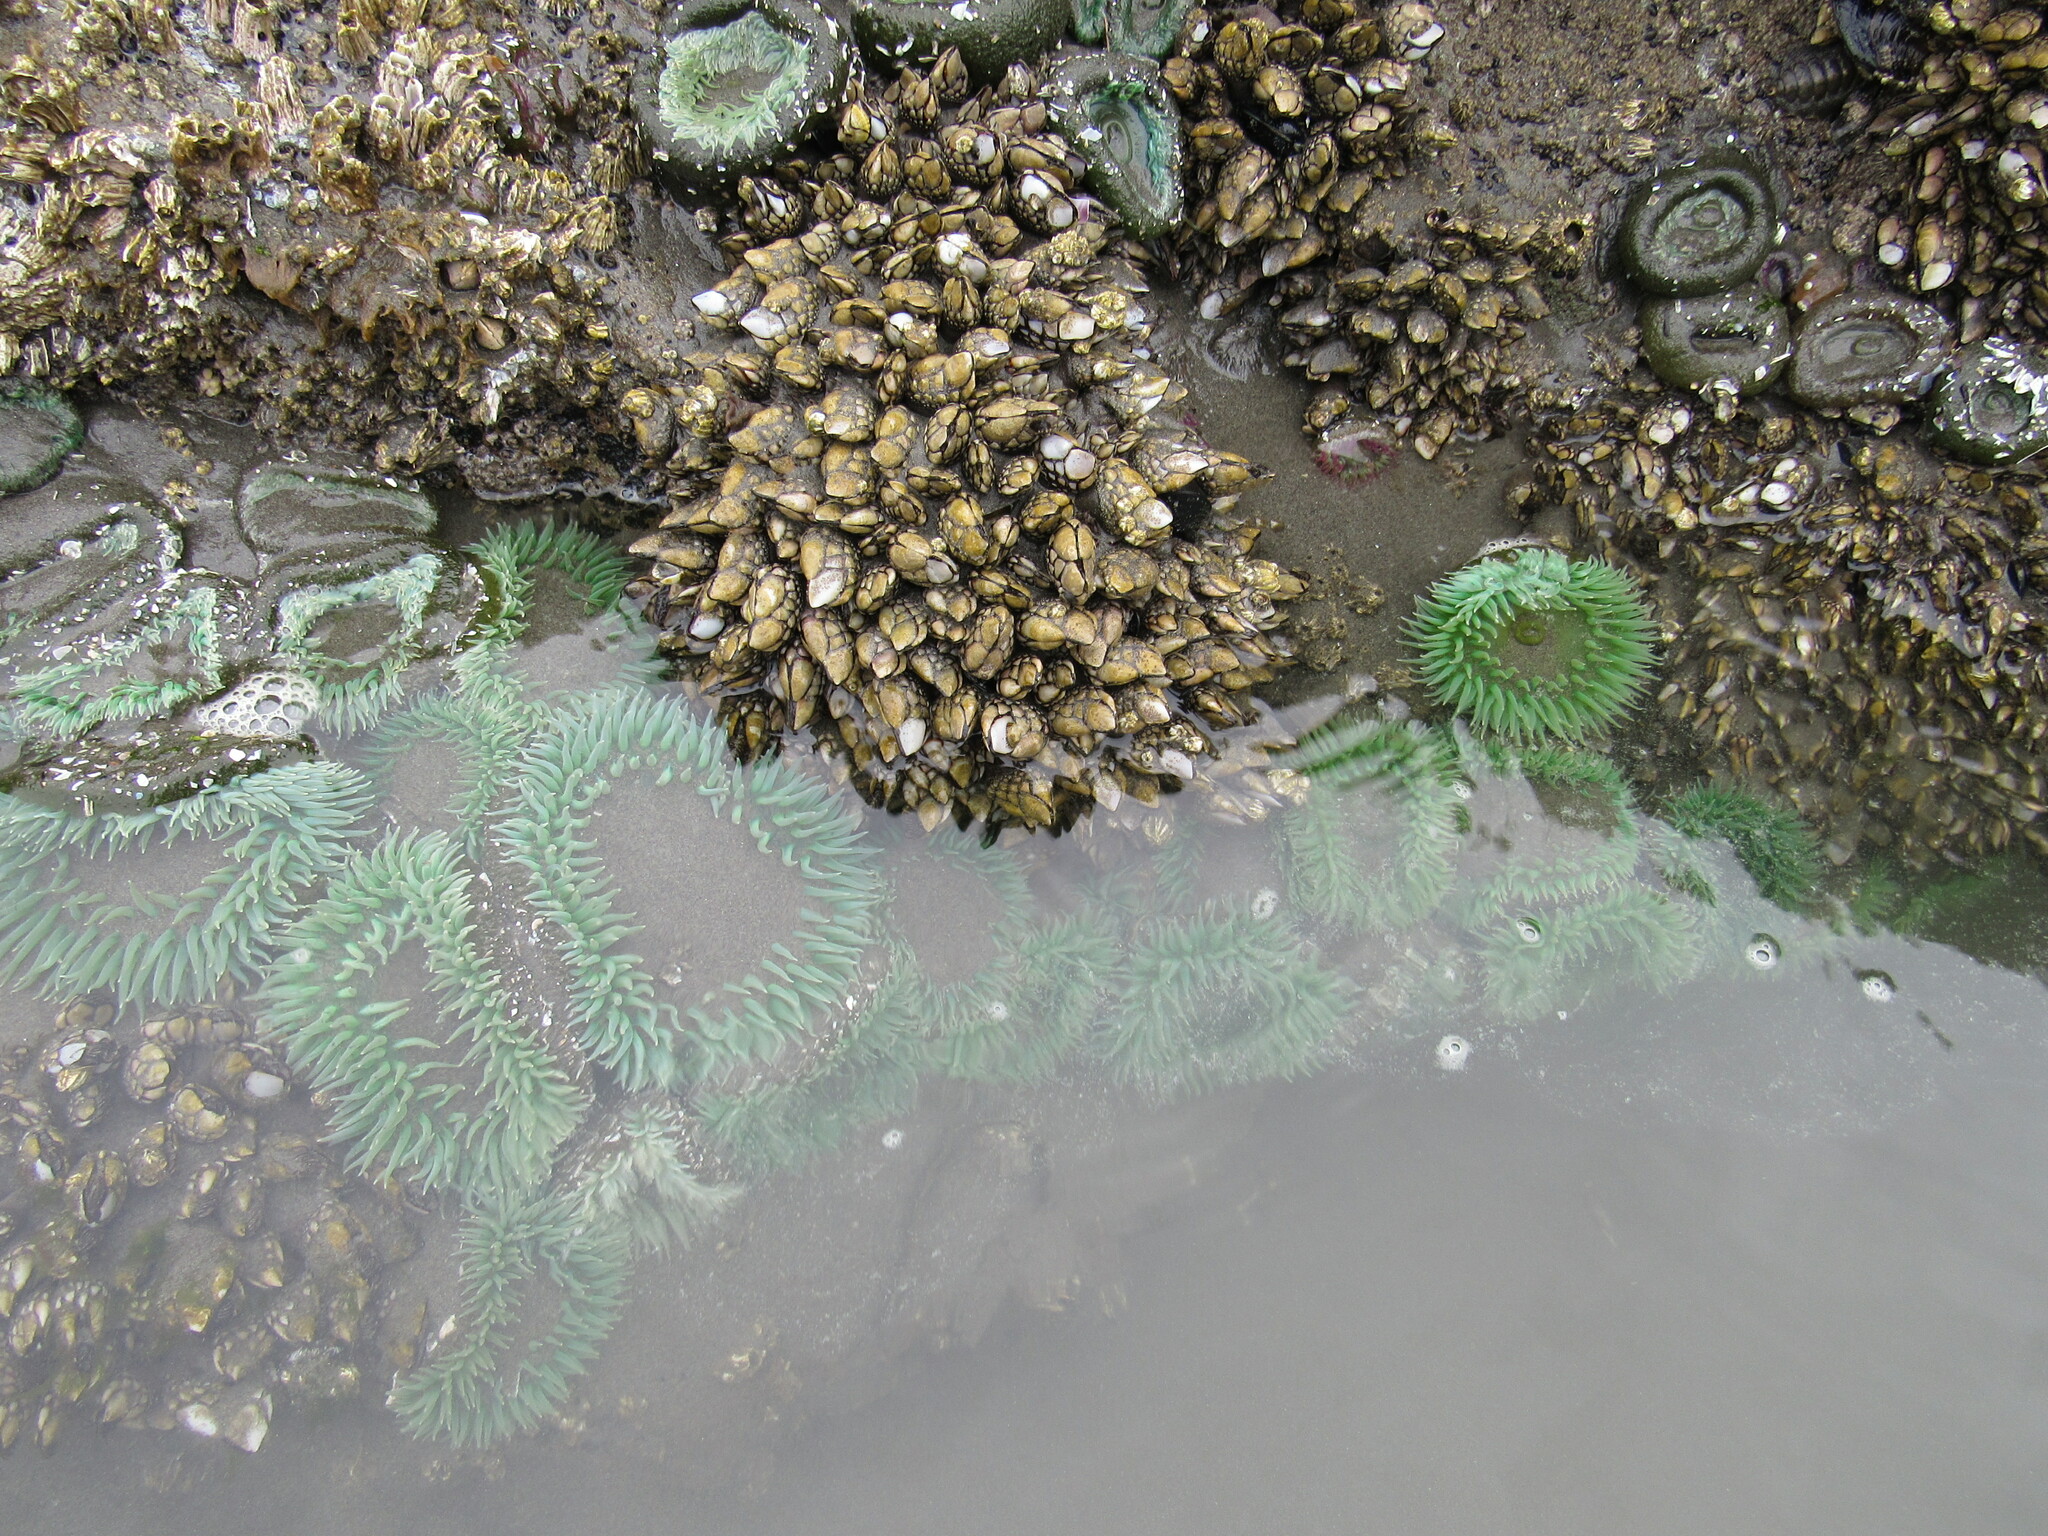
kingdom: Animalia
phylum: Cnidaria
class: Anthozoa
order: Actiniaria
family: Actiniidae
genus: Anthopleura
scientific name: Anthopleura xanthogrammica
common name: Giant green anemone
